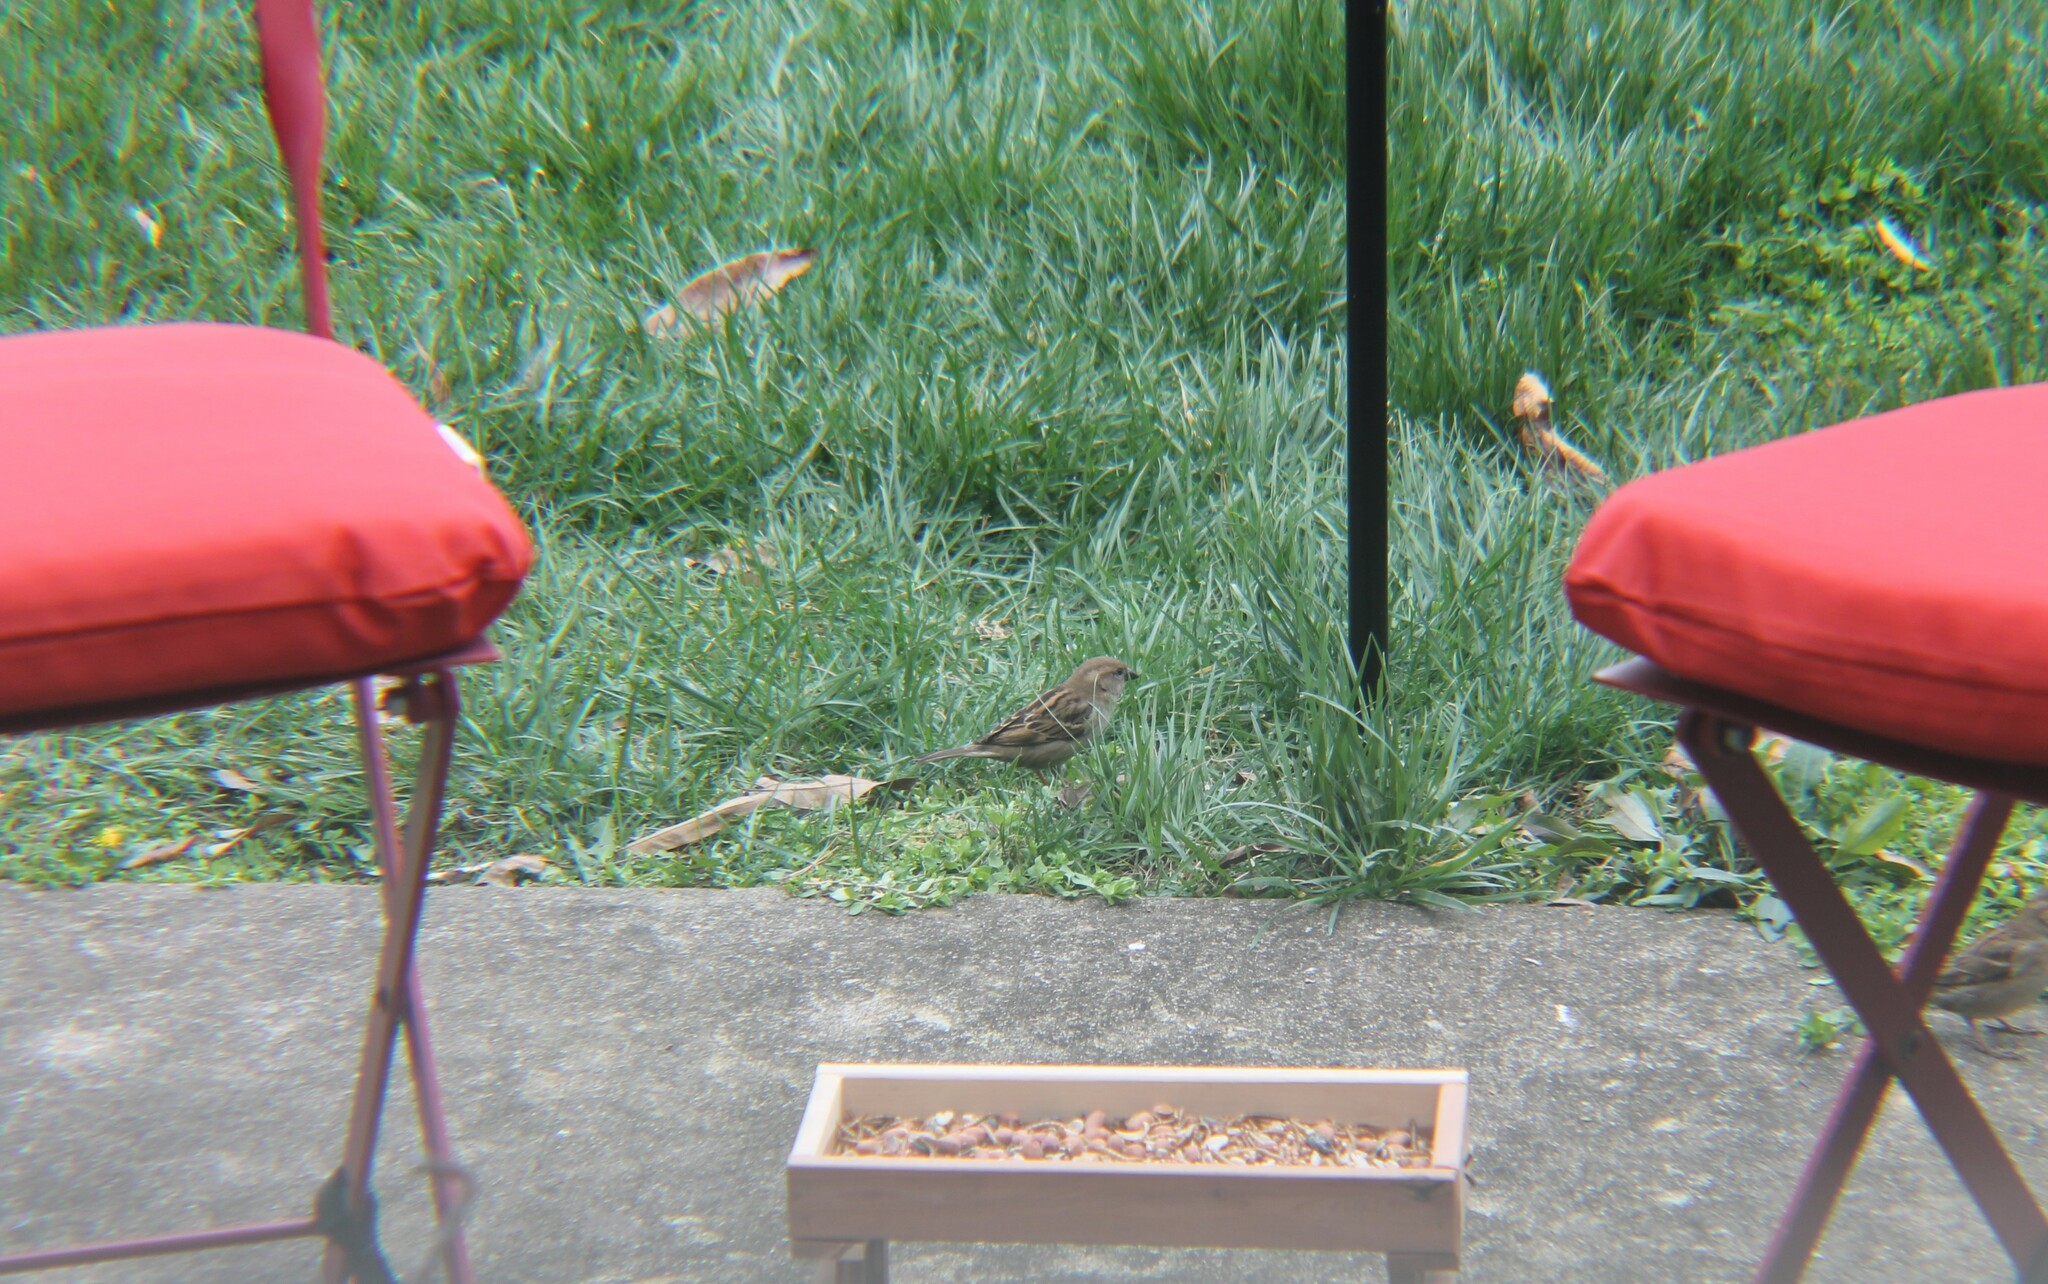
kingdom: Animalia
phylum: Chordata
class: Aves
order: Passeriformes
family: Passeridae
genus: Passer
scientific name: Passer domesticus
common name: House sparrow
